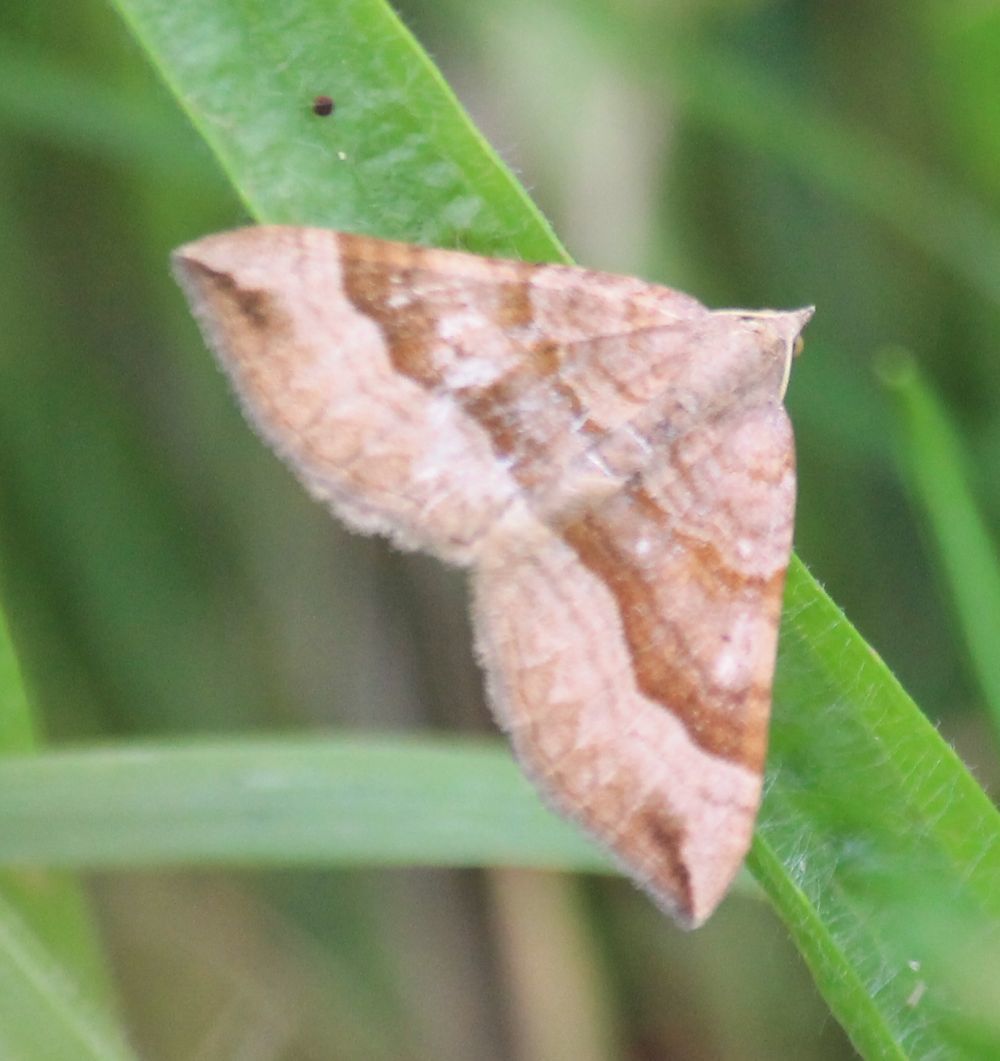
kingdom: Animalia
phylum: Arthropoda
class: Insecta
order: Lepidoptera
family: Geometridae
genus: Scotopteryx
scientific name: Scotopteryx chenopodiata
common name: Shaded broad-bar
